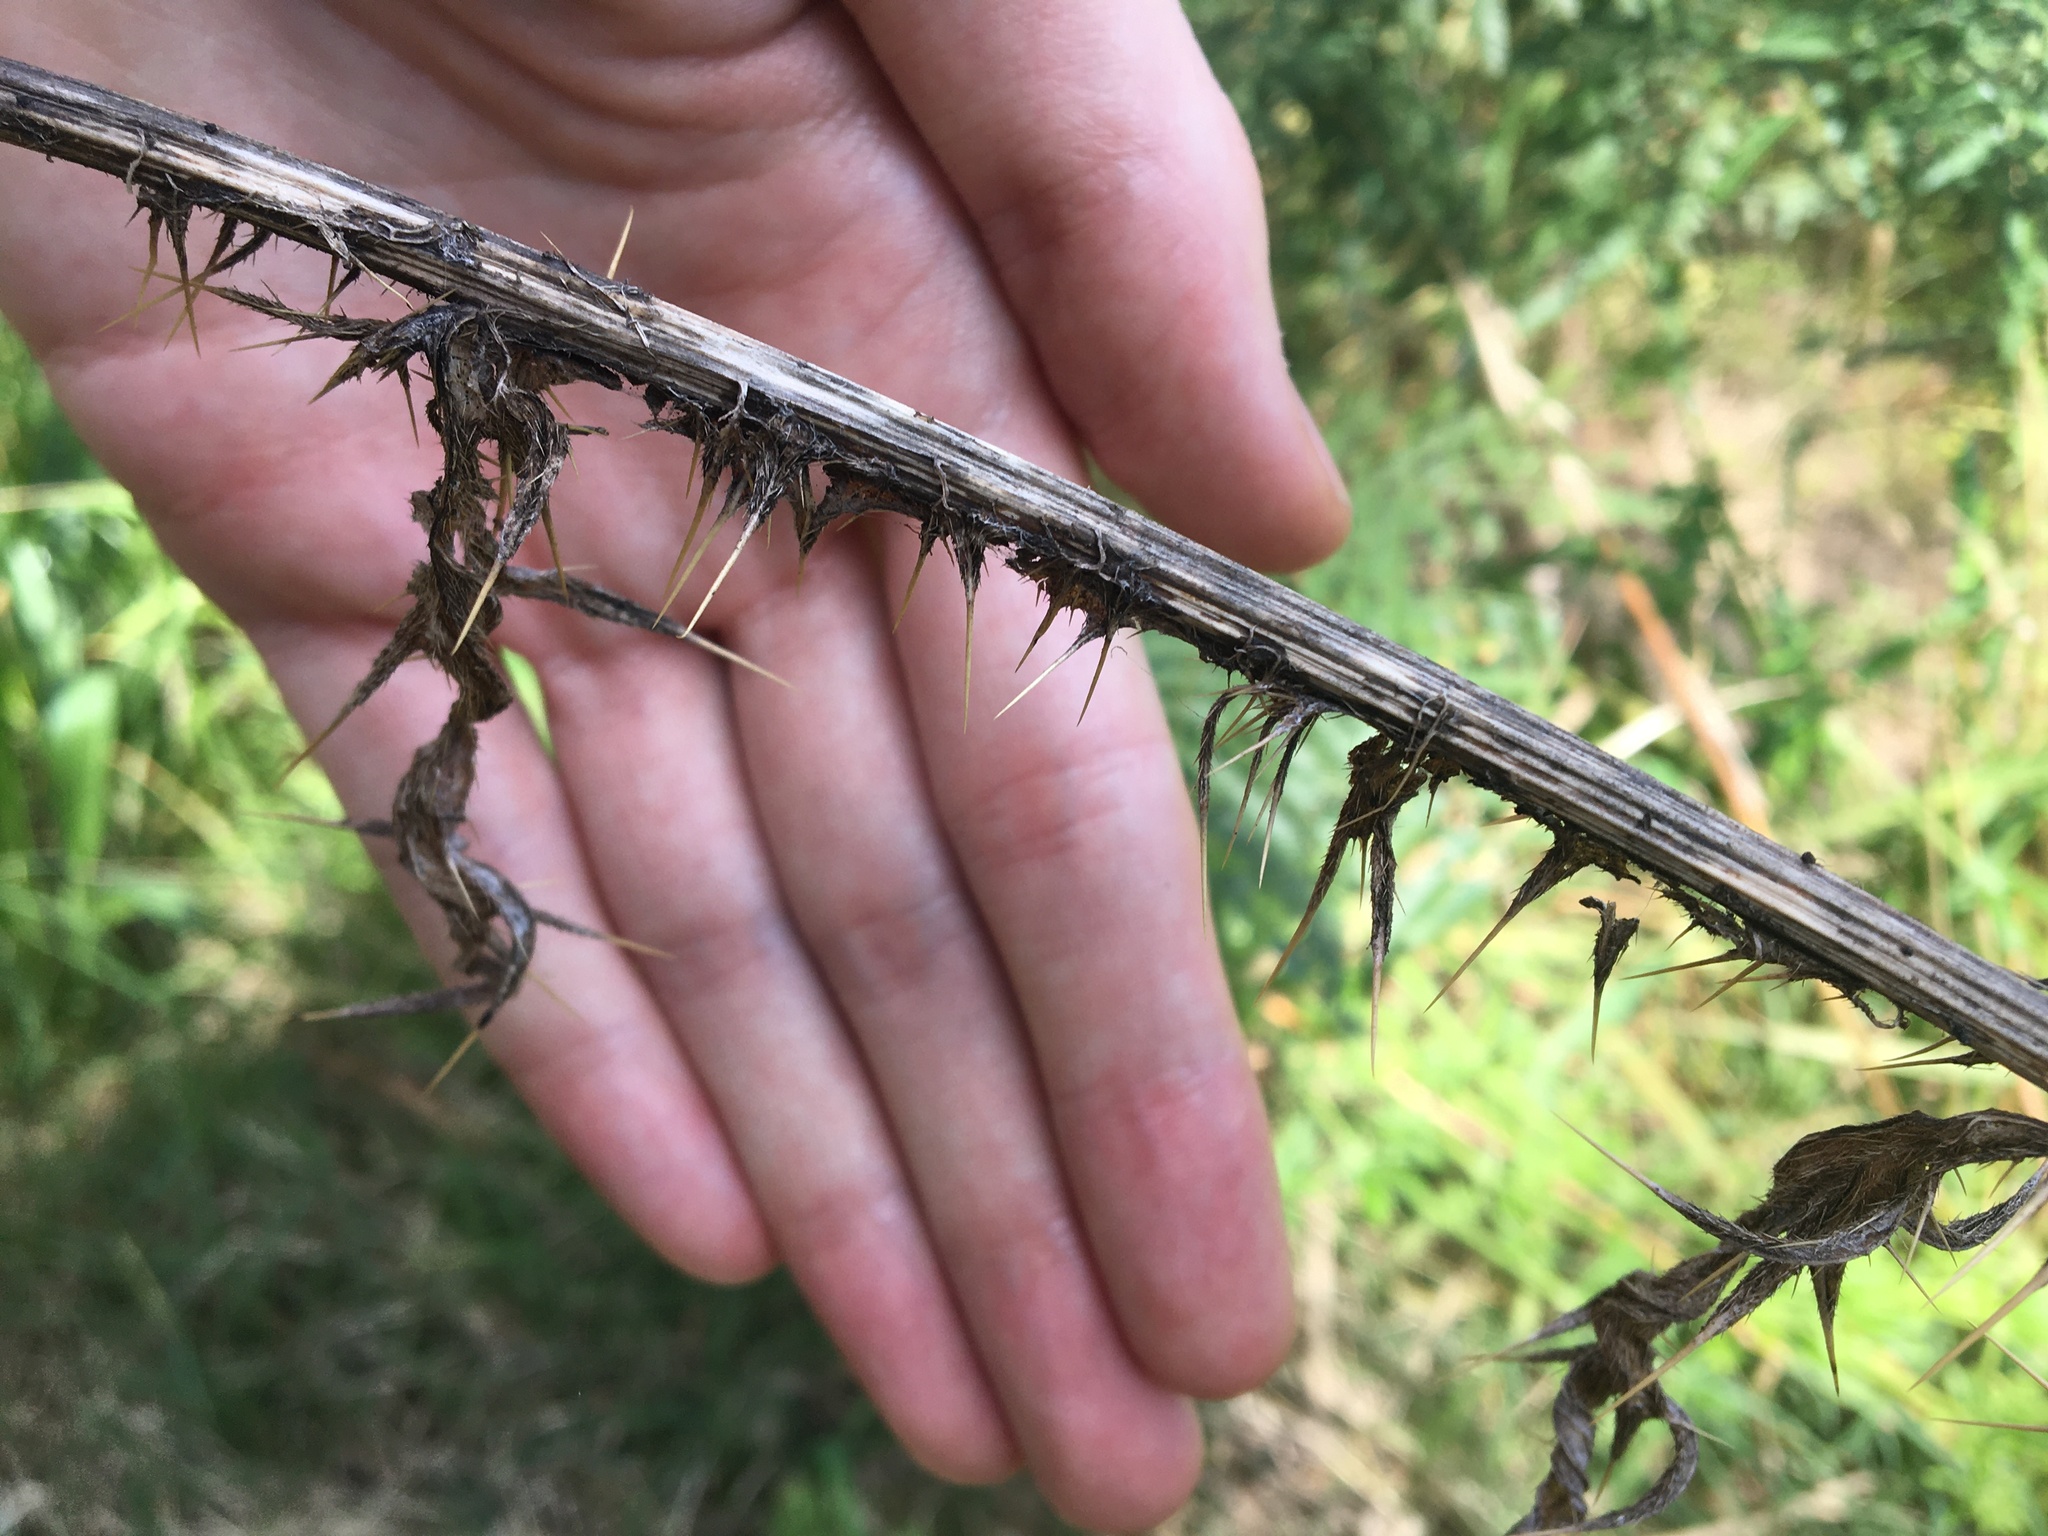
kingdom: Plantae
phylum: Tracheophyta
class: Magnoliopsida
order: Asterales
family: Asteraceae
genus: Cirsium
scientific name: Cirsium vulgare
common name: Bull thistle
